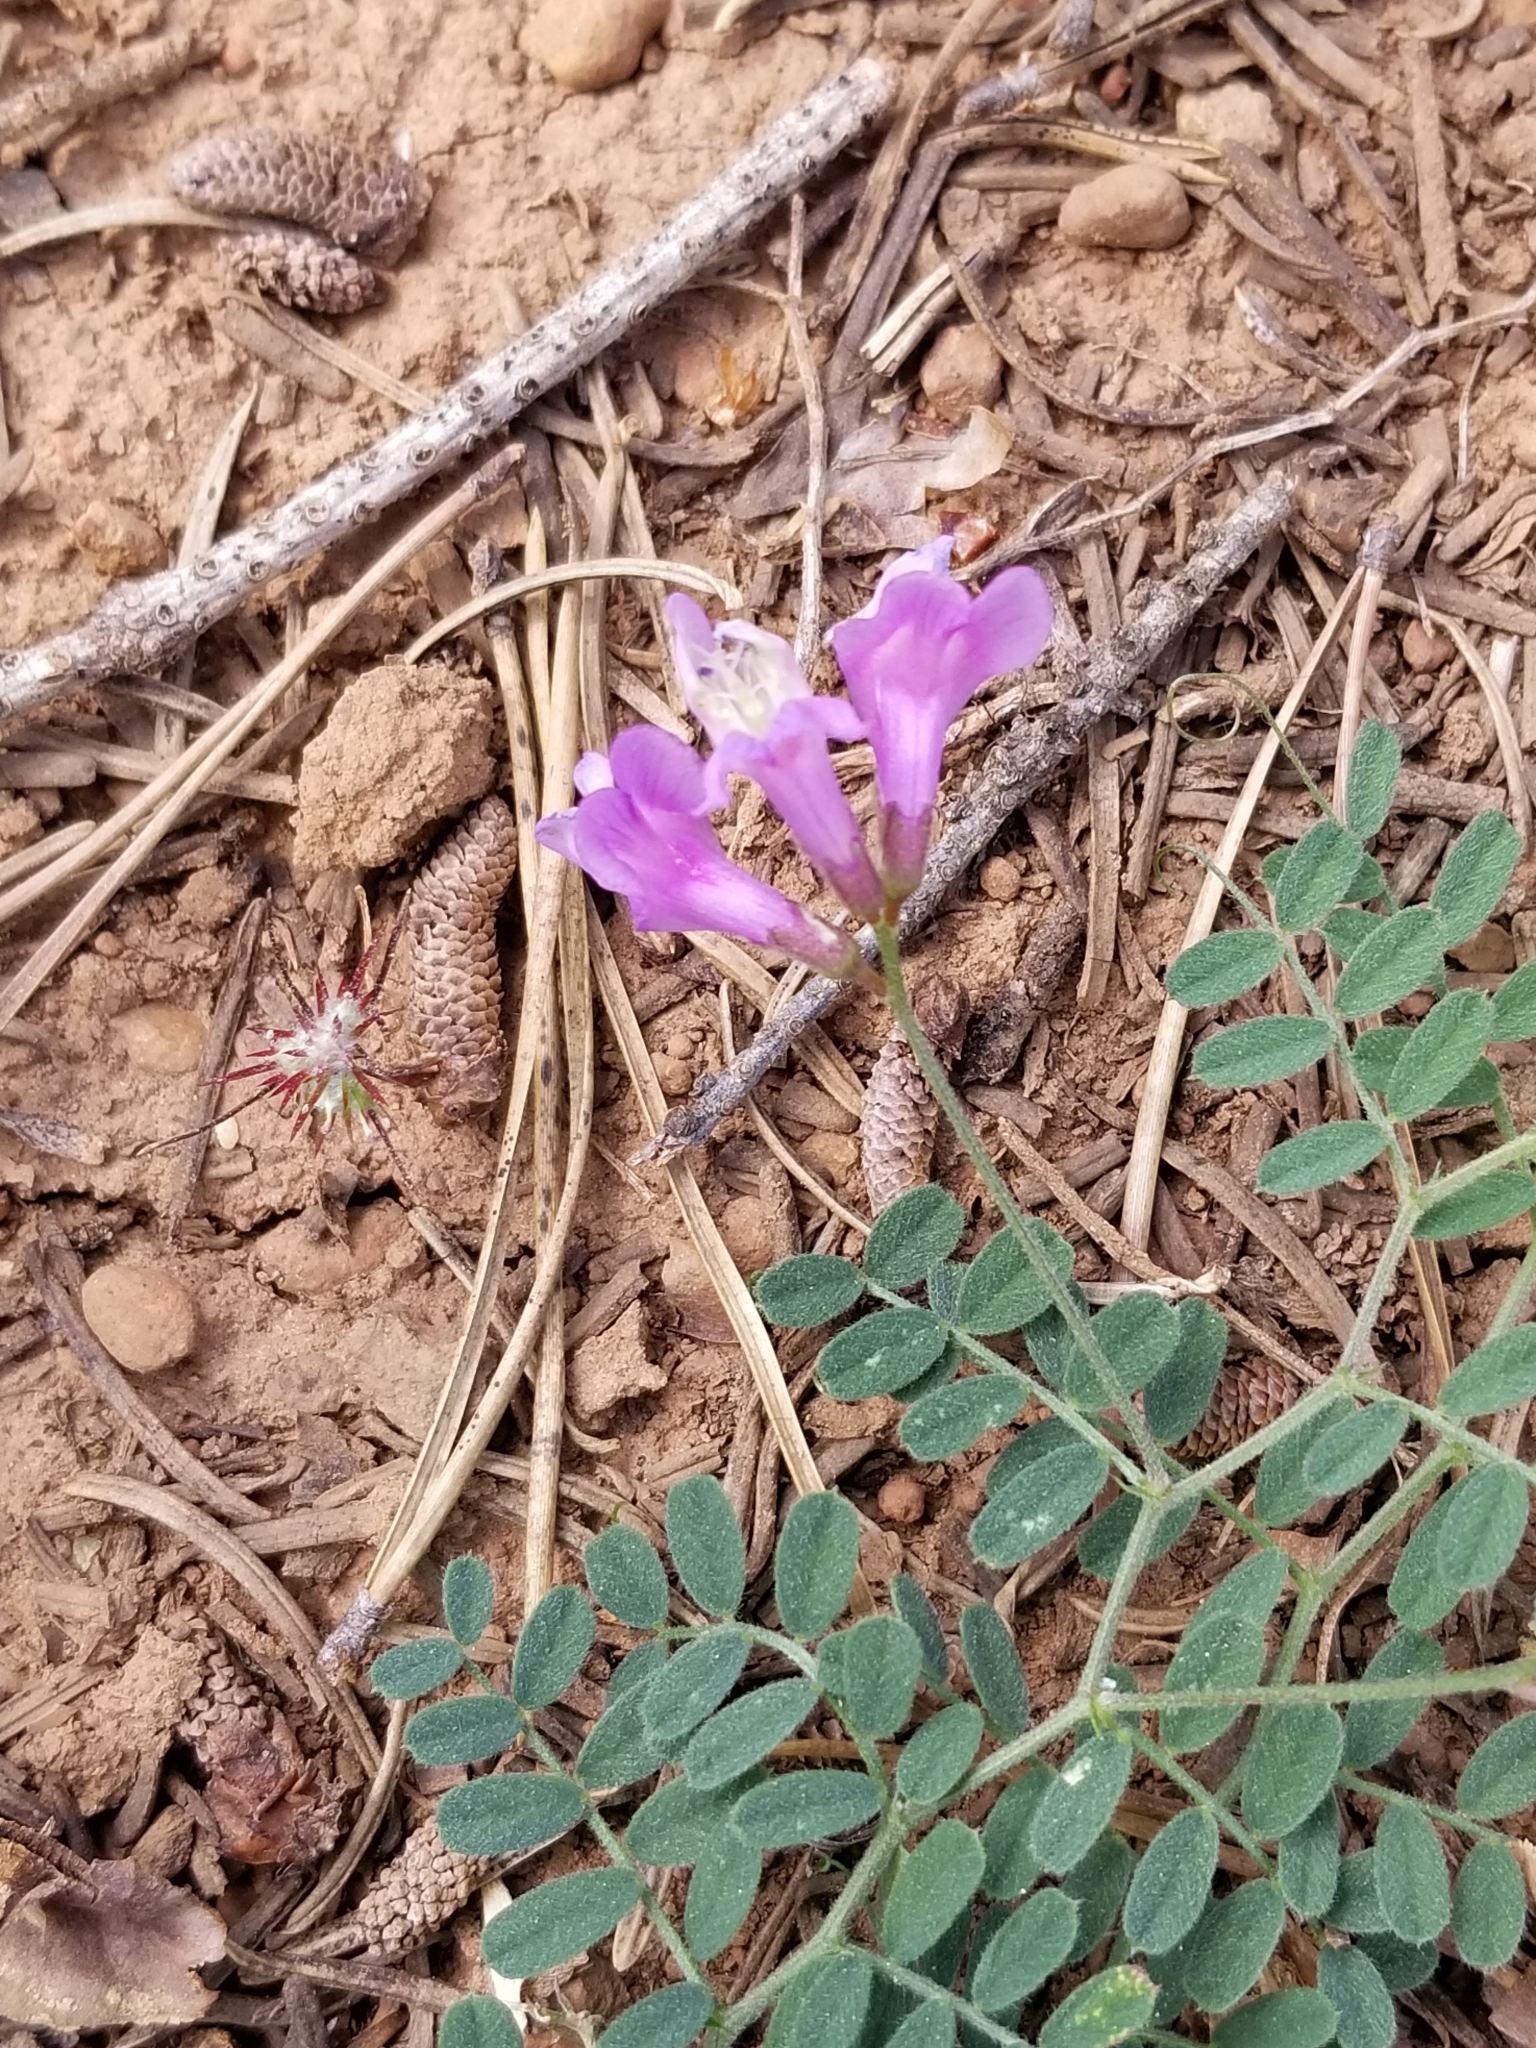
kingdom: Plantae
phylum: Tracheophyta
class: Magnoliopsida
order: Fabales
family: Fabaceae
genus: Vicia
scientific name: Vicia americana
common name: American vetch
